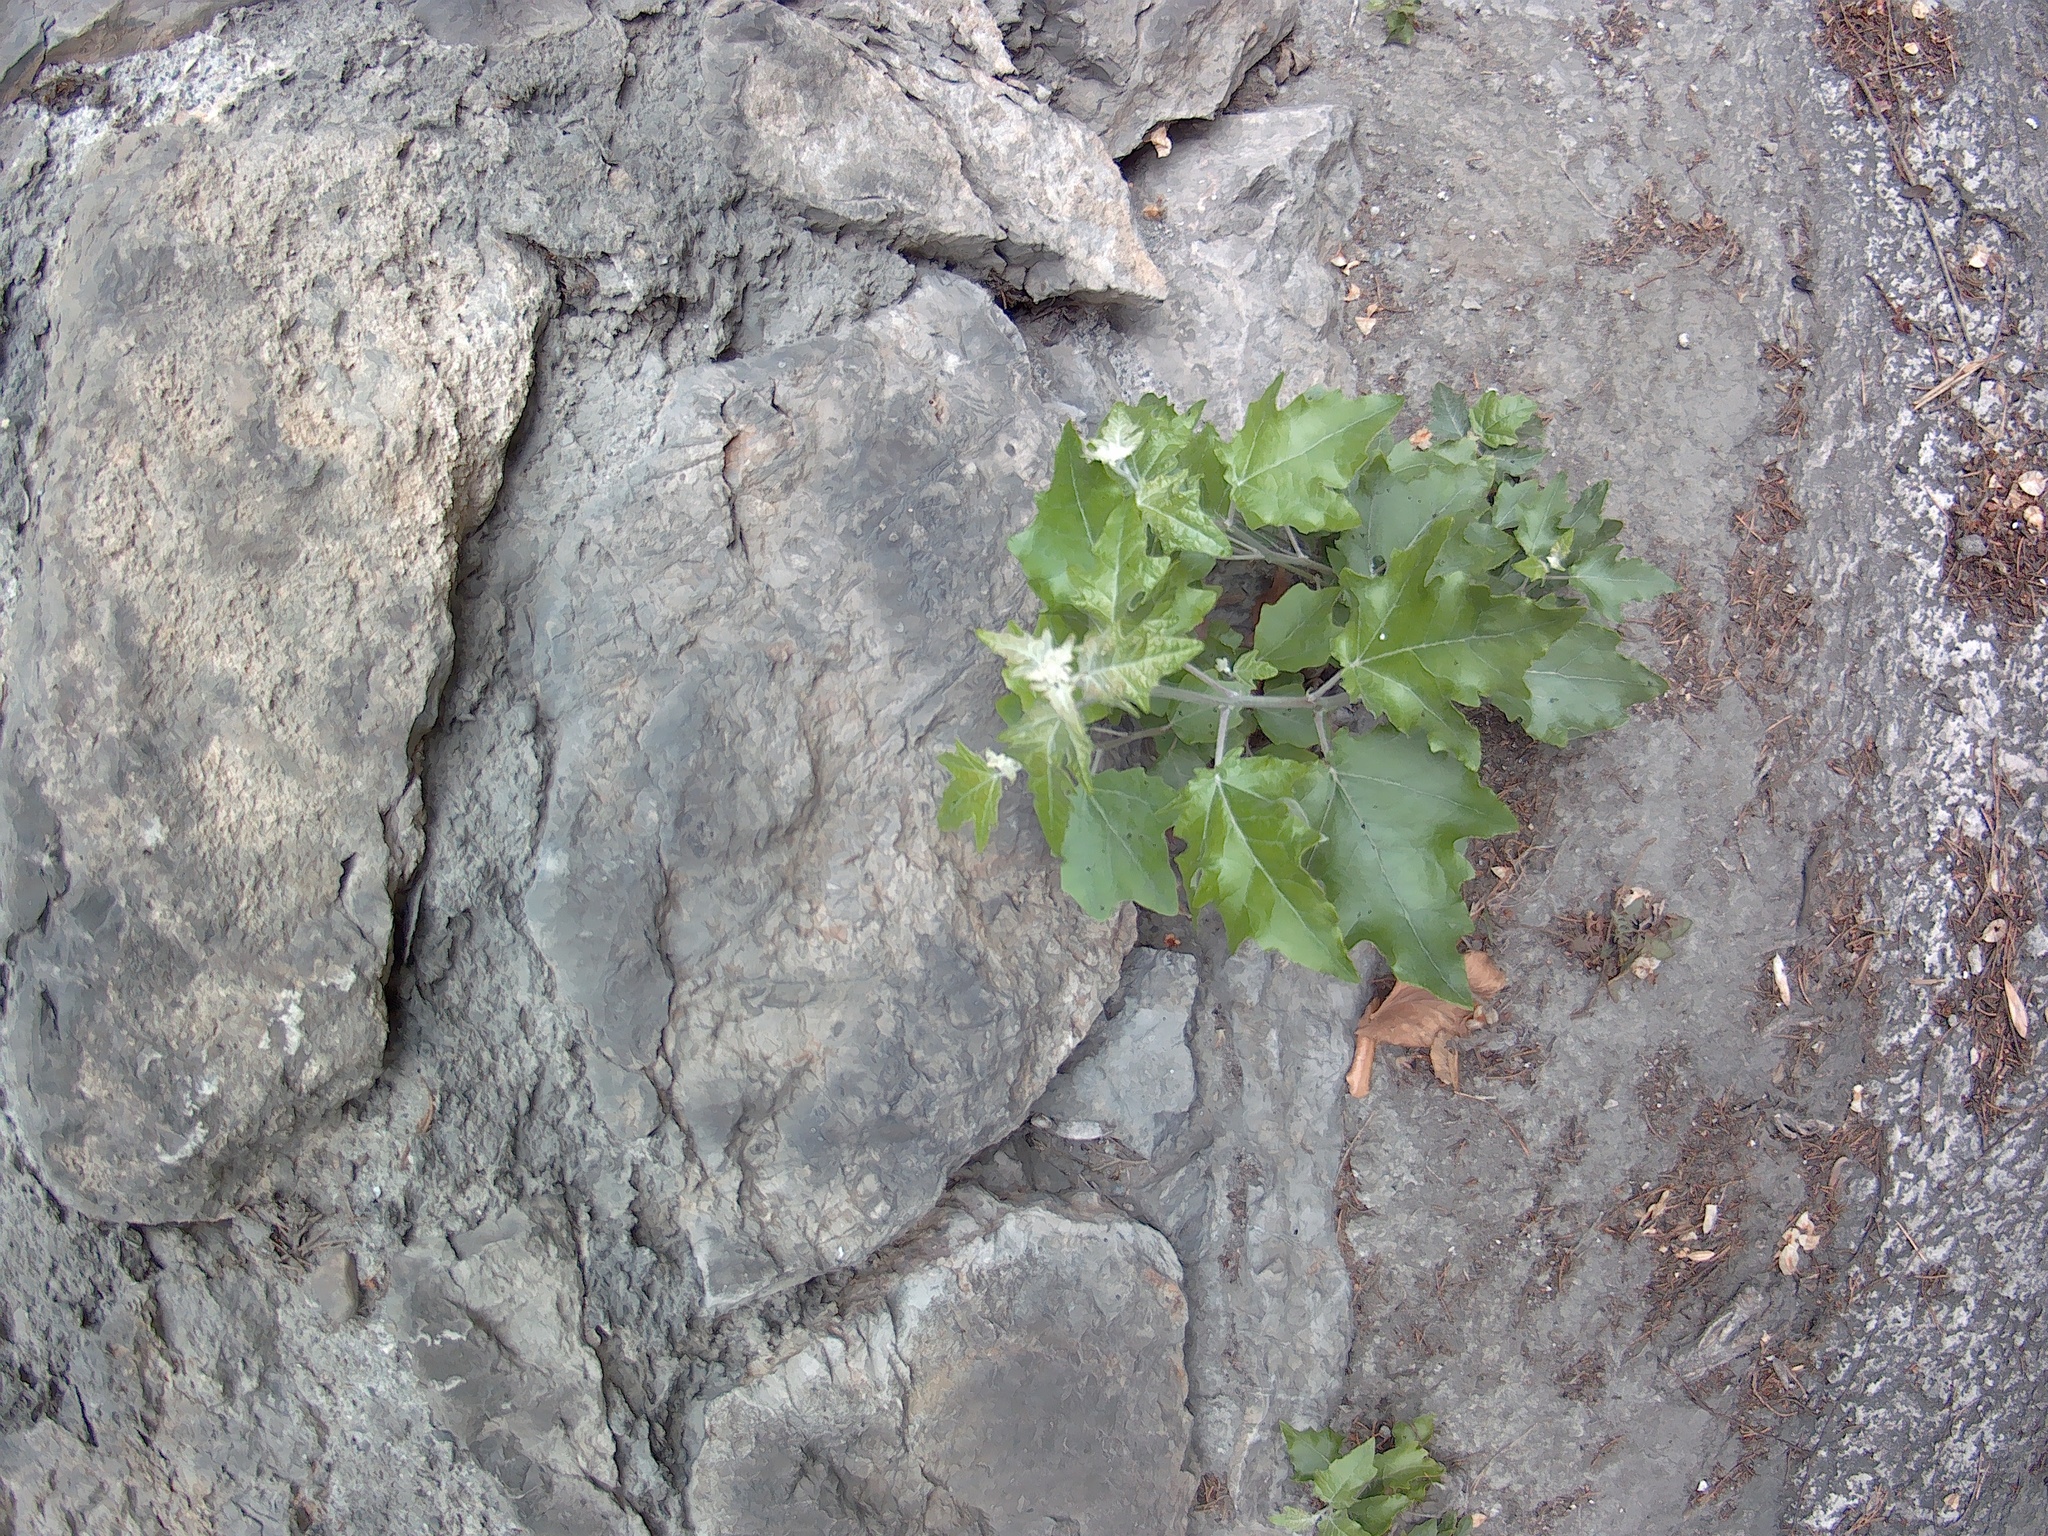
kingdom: Plantae
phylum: Tracheophyta
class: Magnoliopsida
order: Malpighiales
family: Salicaceae
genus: Populus
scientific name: Populus alba
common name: White poplar
